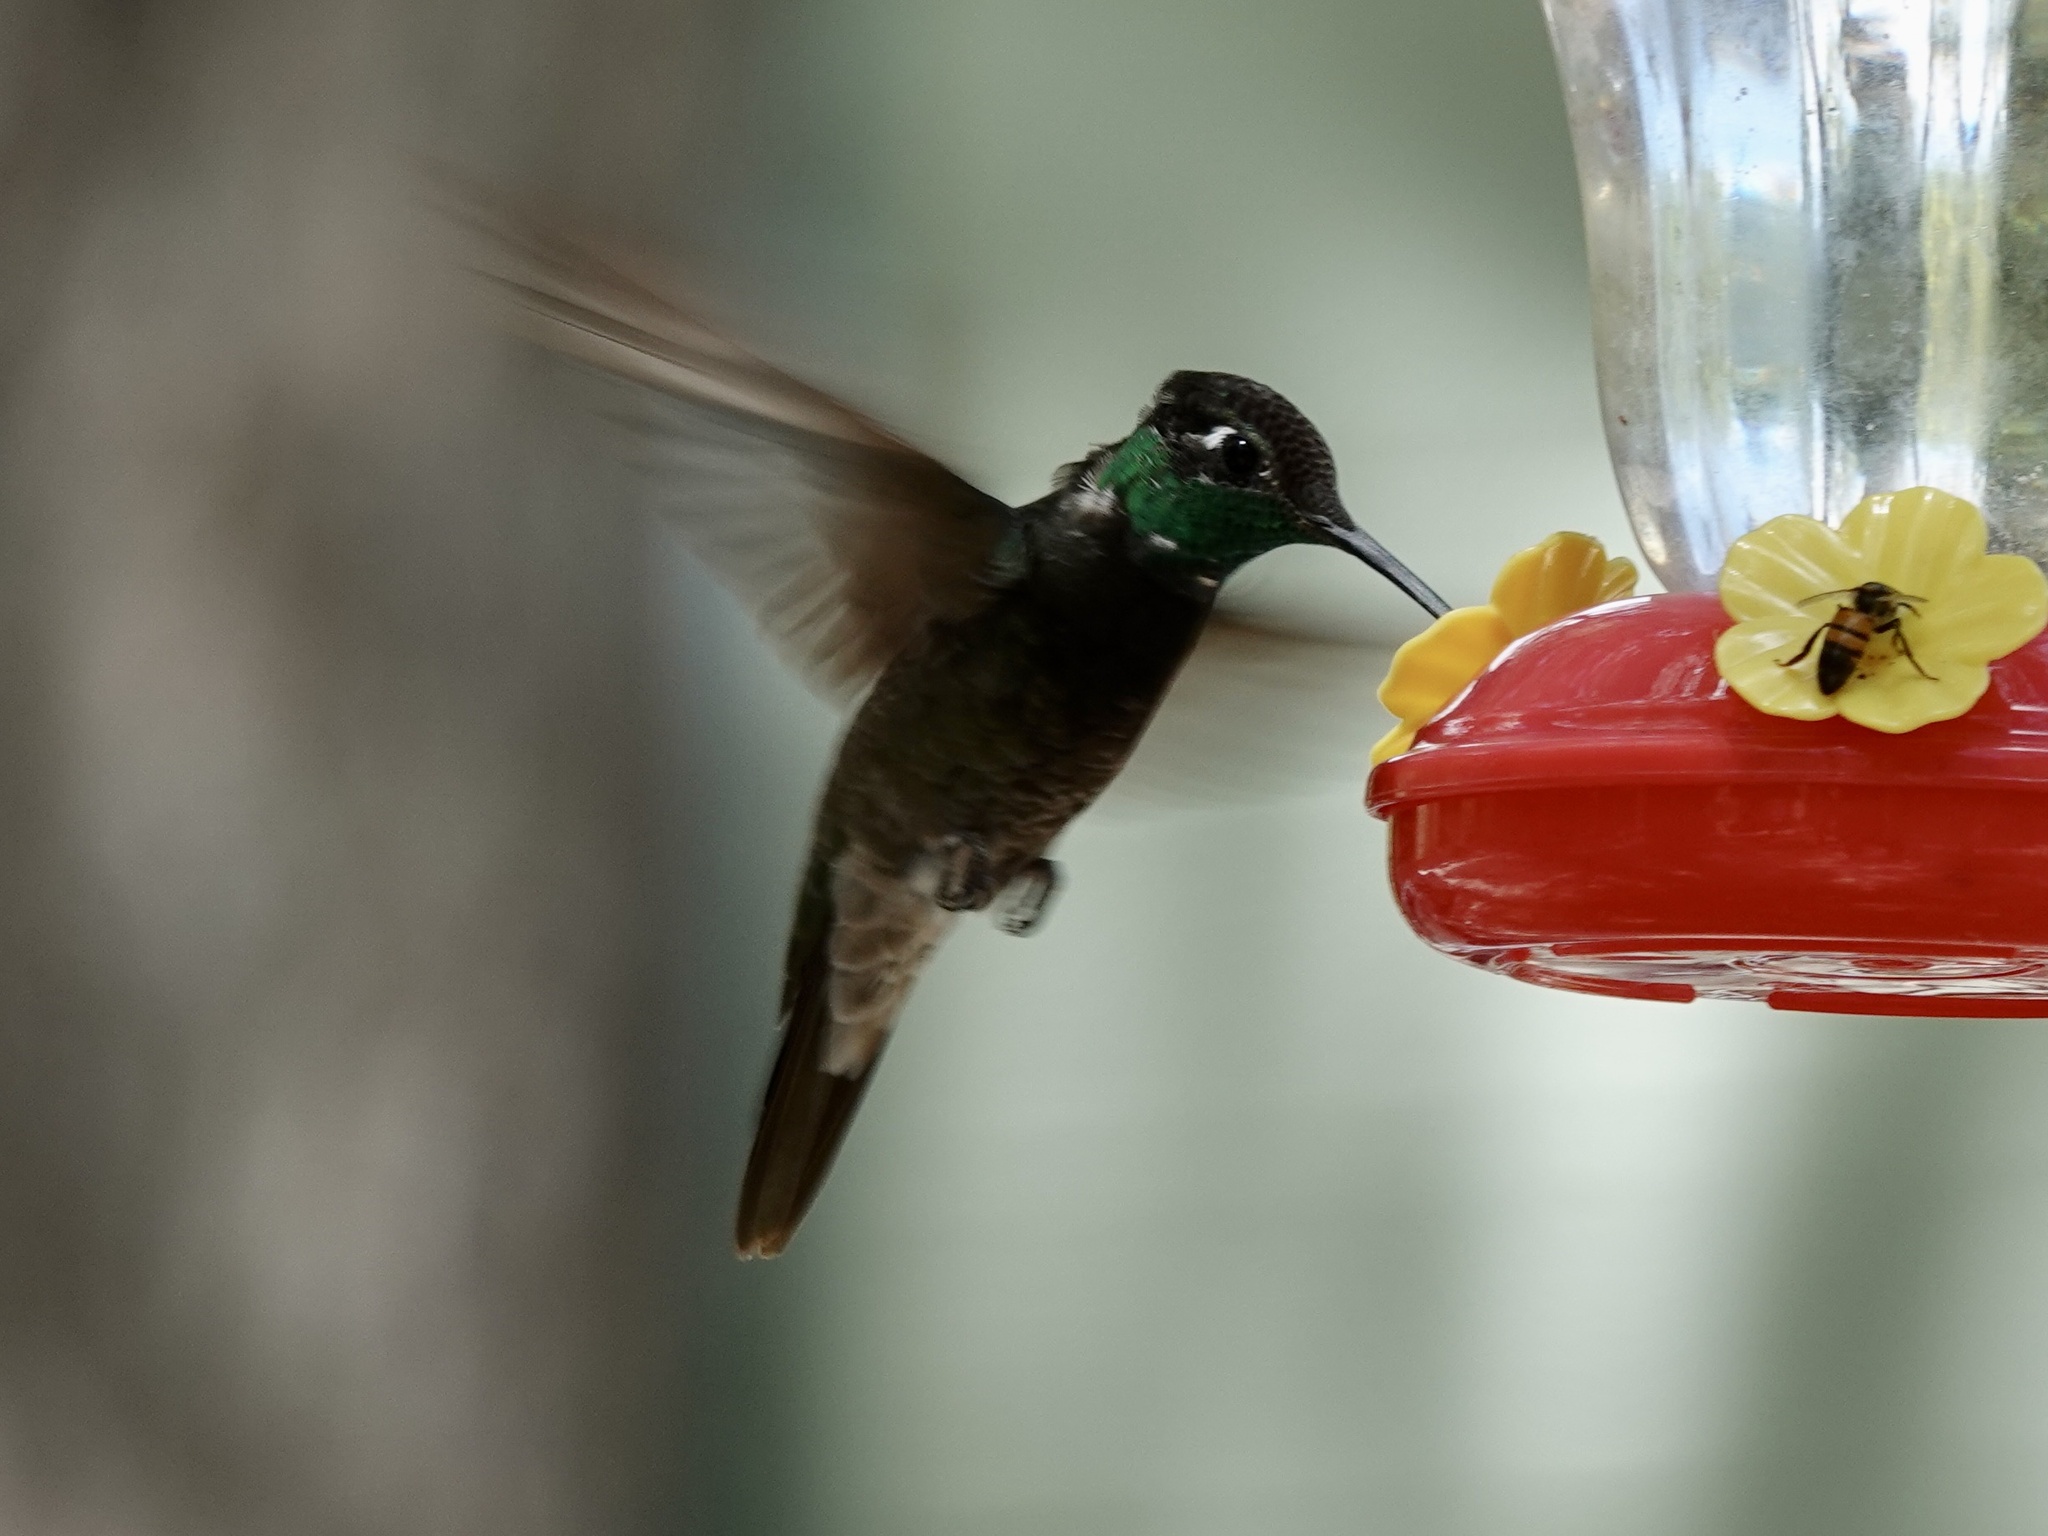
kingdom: Animalia
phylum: Chordata
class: Aves
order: Apodiformes
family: Trochilidae
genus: Eugenes
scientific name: Eugenes fulgens
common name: Magnificent hummingbird
